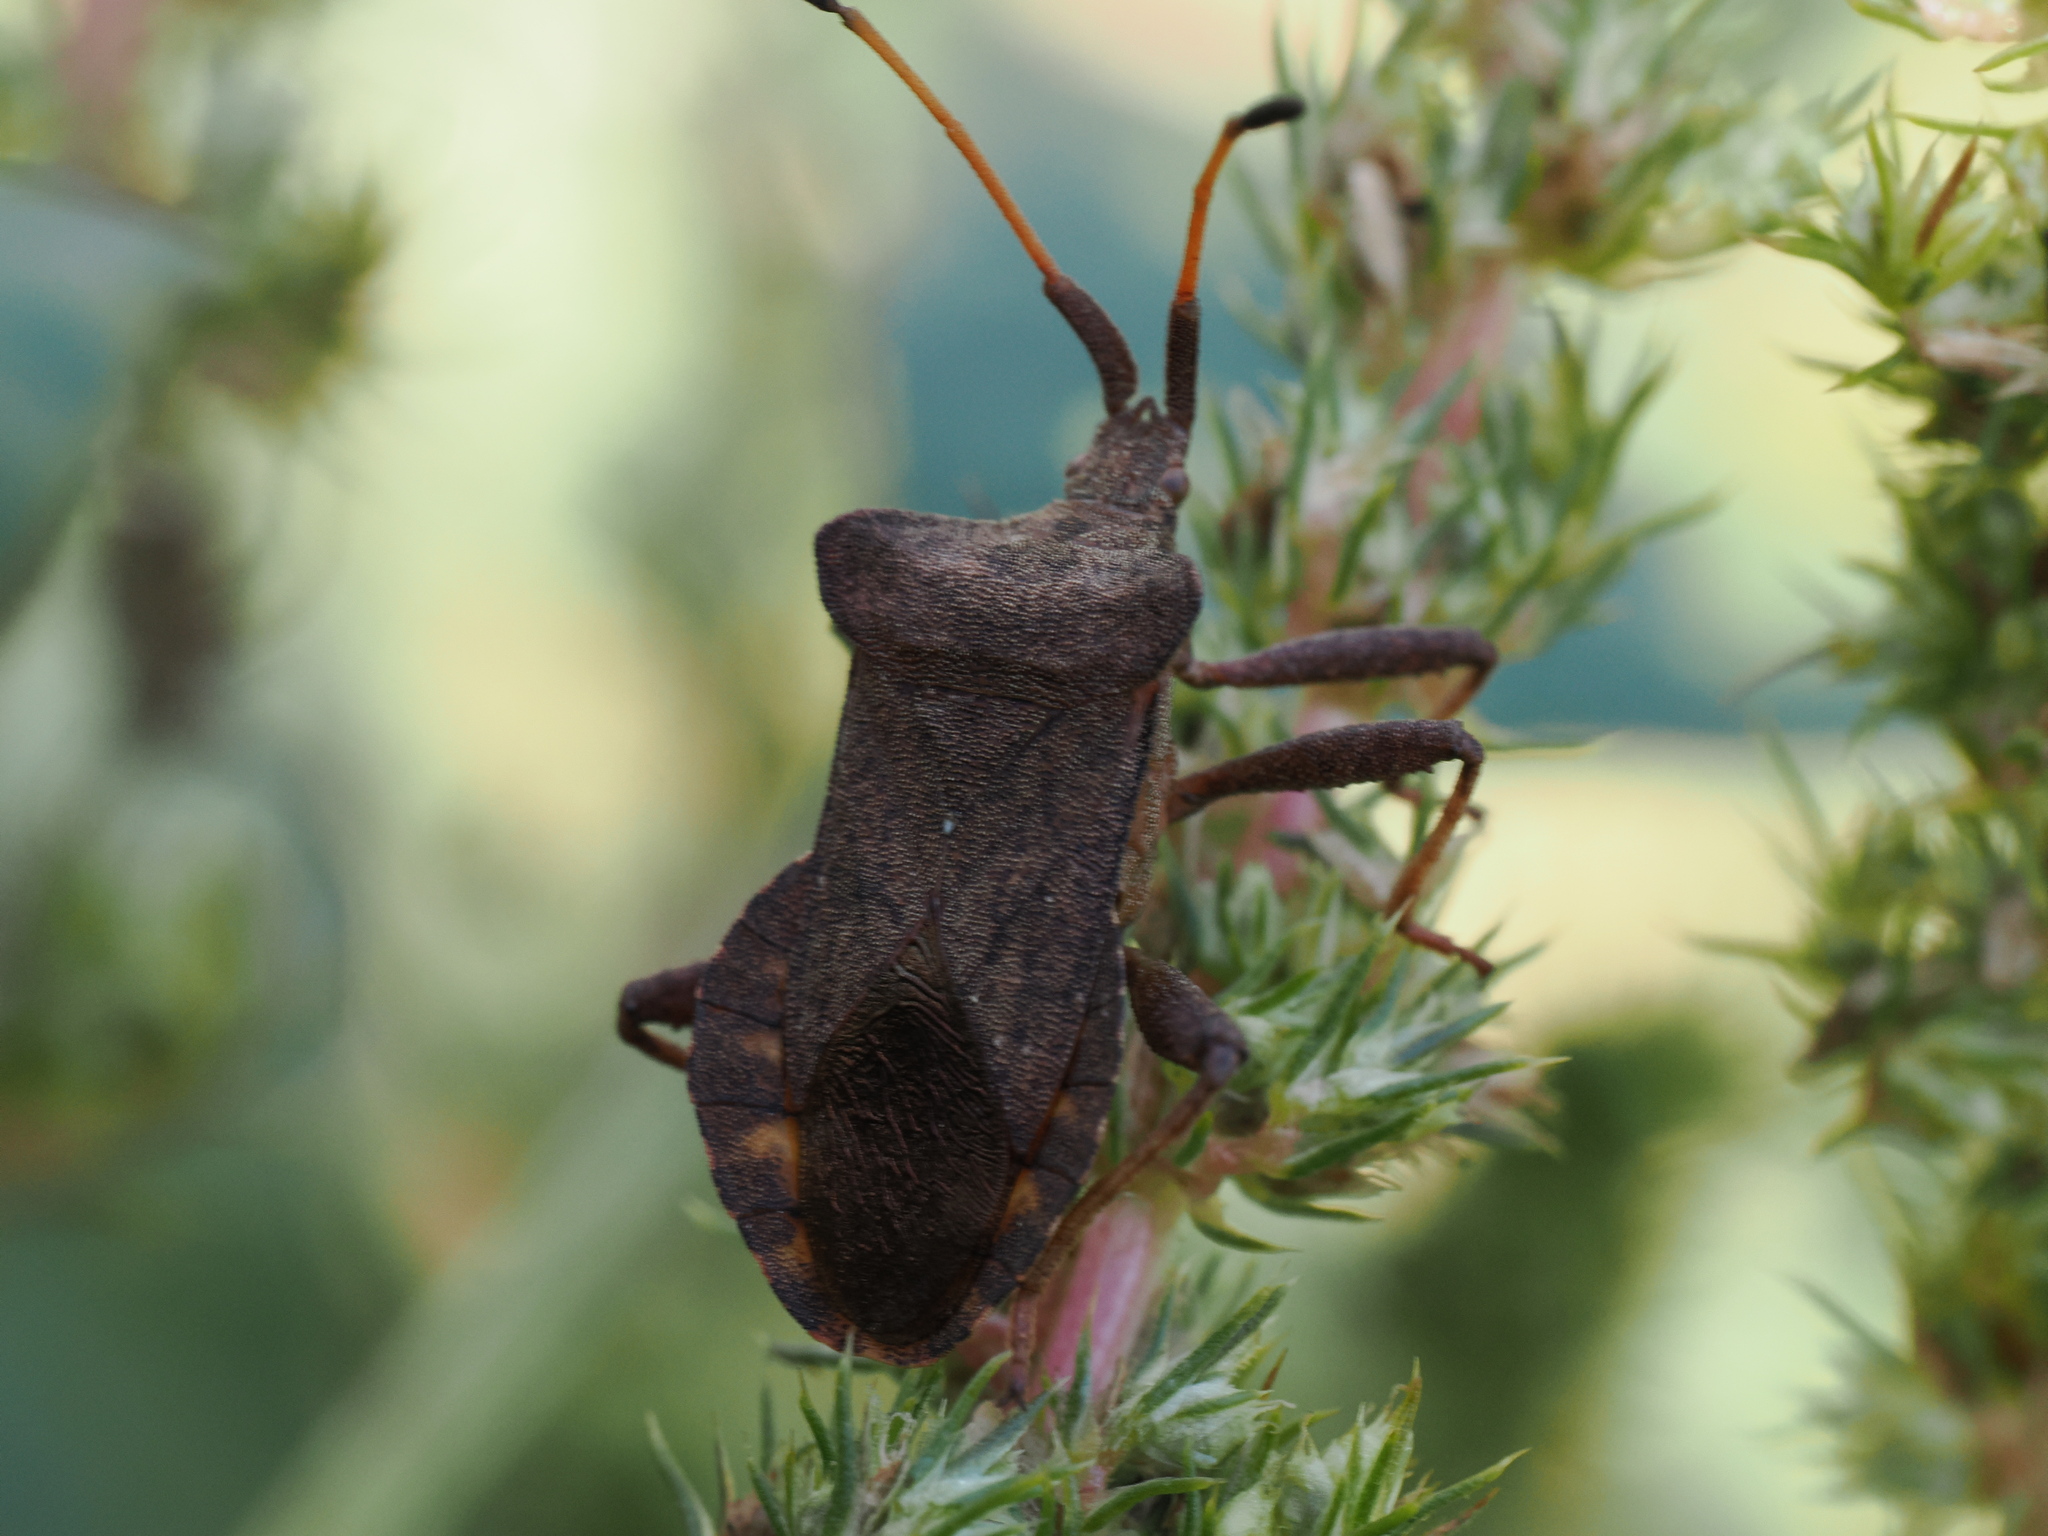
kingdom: Animalia
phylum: Arthropoda
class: Insecta
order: Hemiptera
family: Coreidae
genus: Coreus
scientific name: Coreus marginatus
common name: Dock bug
